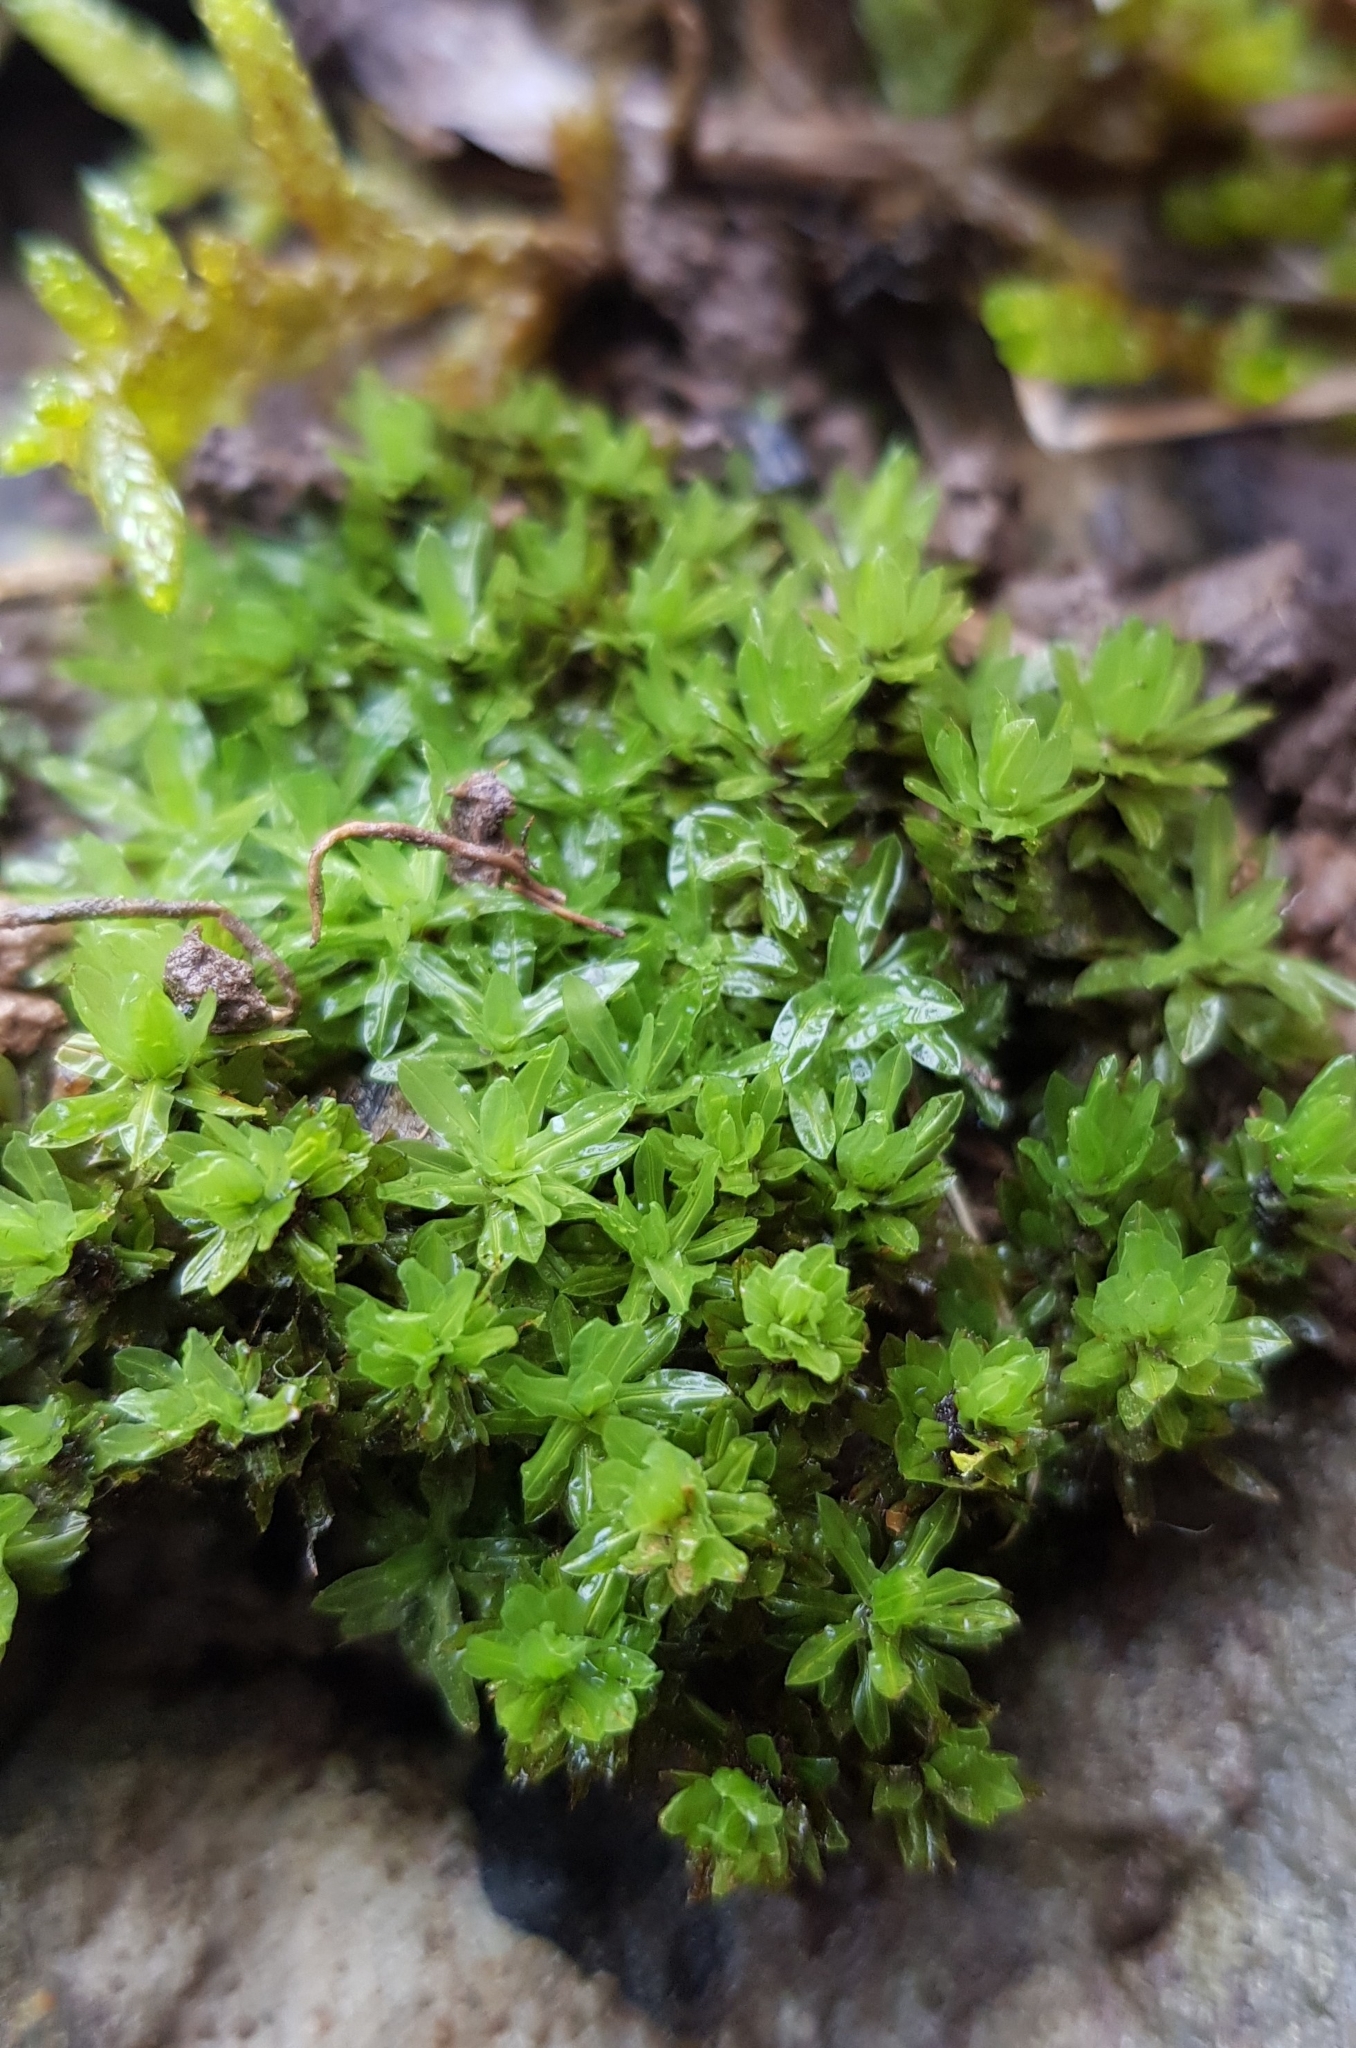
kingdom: Plantae
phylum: Bryophyta
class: Bryopsida
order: Encalyptales
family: Encalyptaceae
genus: Encalypta
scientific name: Encalypta streptocarpa
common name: Spiral extinguisher-moss
